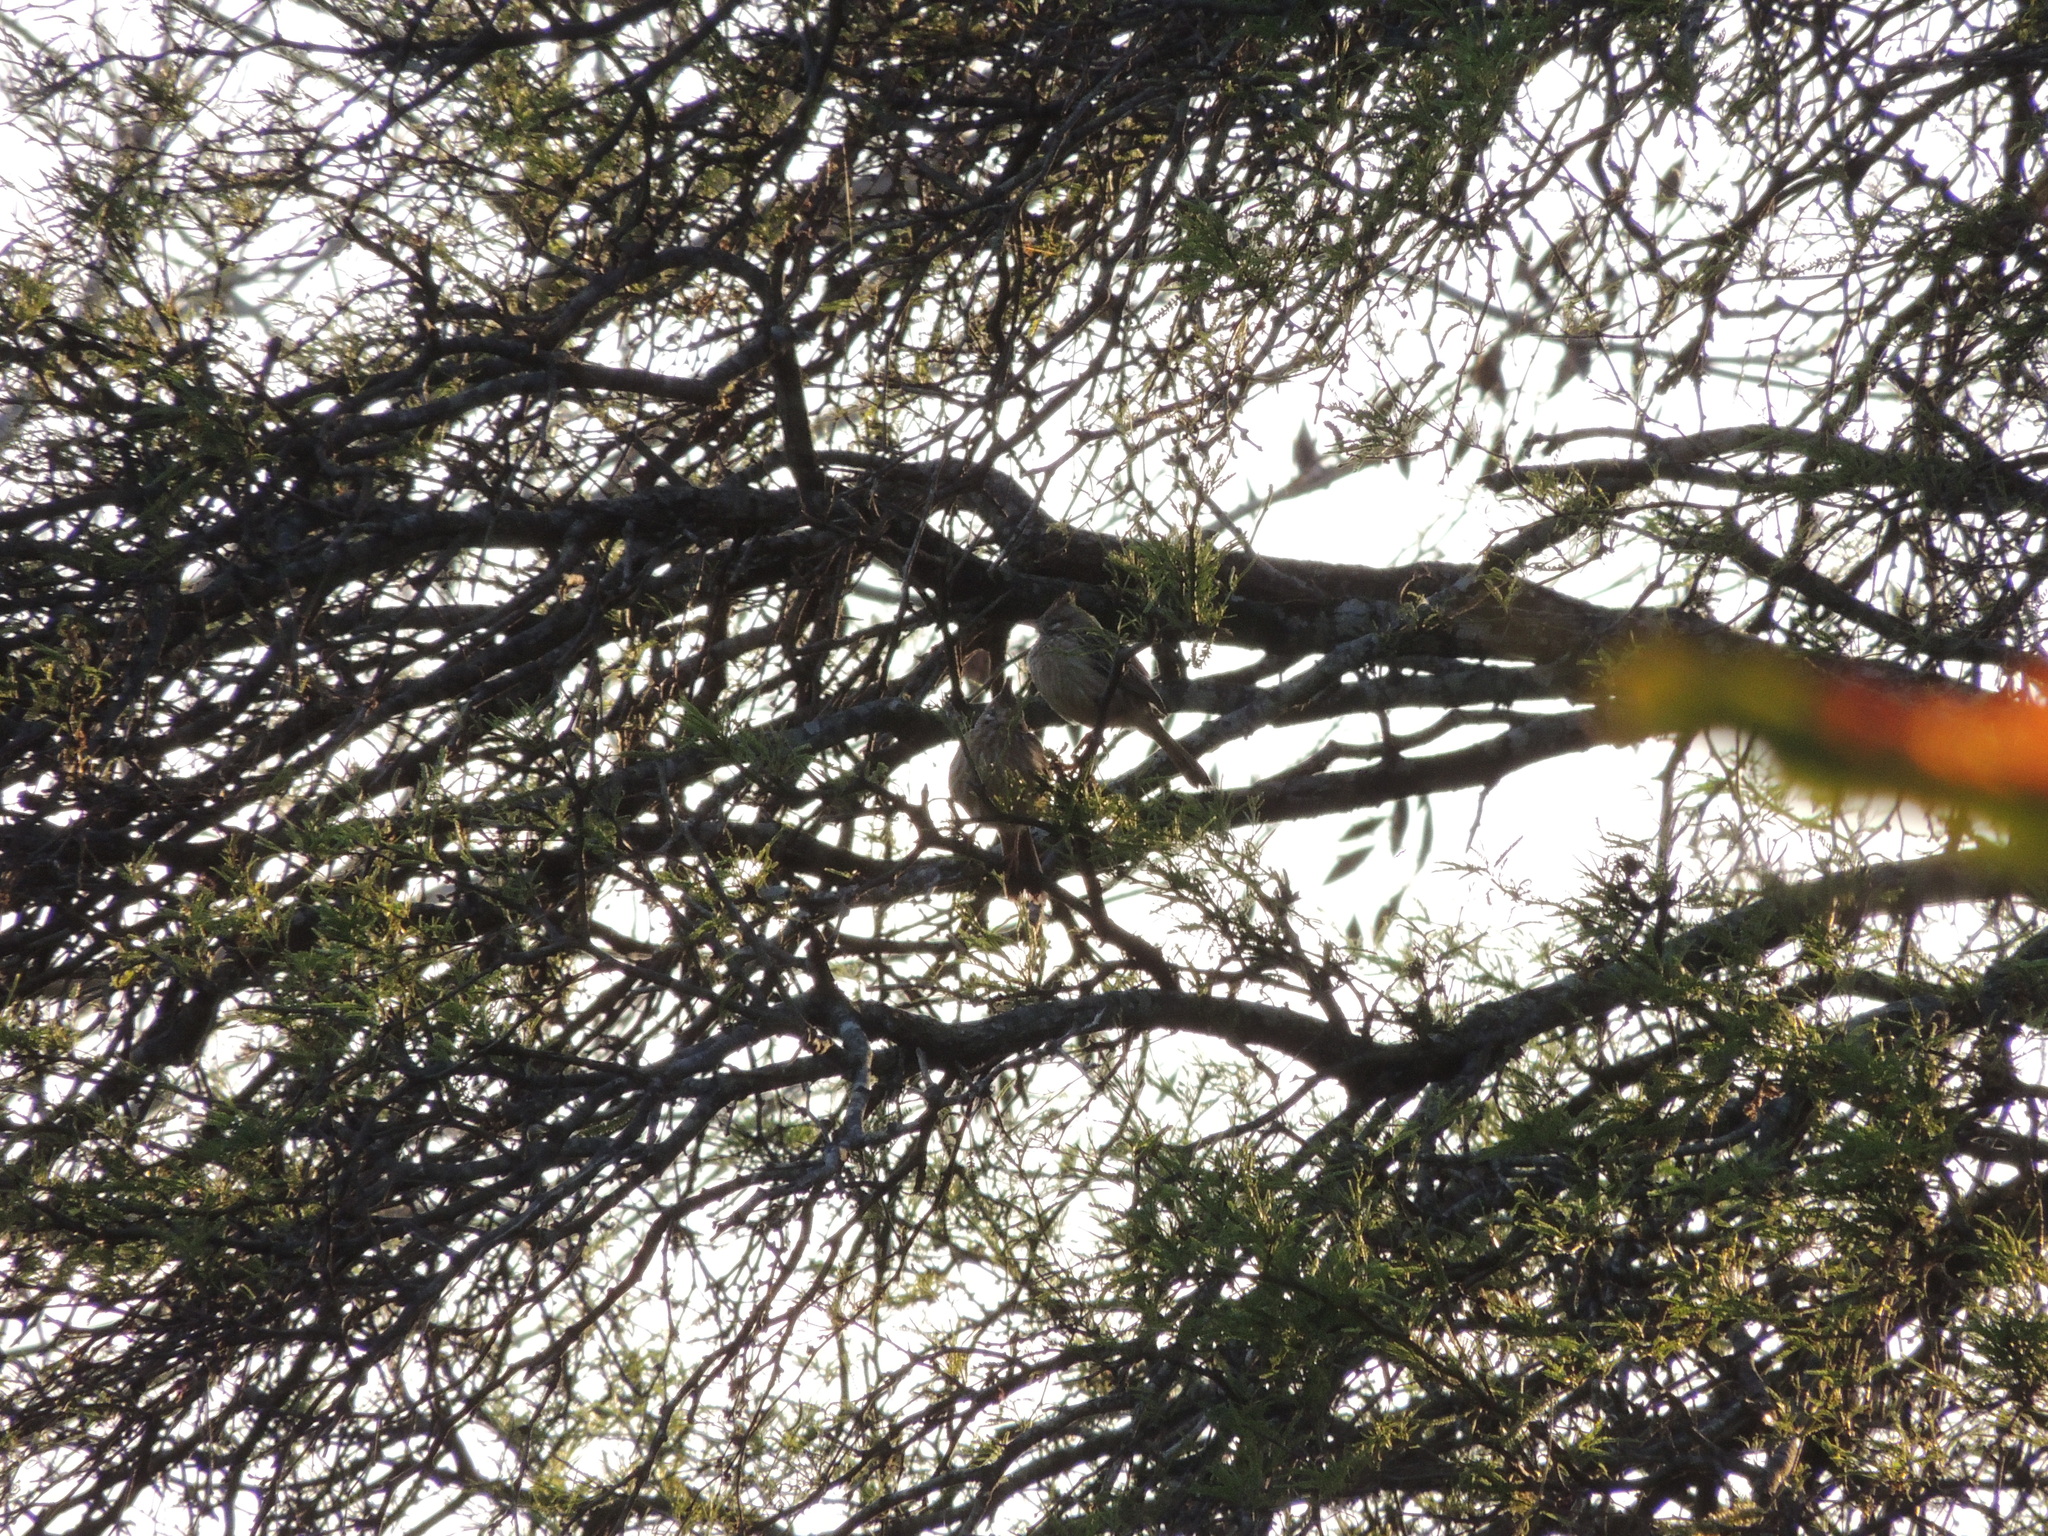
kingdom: Animalia
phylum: Chordata
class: Aves
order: Passeriformes
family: Furnariidae
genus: Coryphistera
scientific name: Coryphistera alaudina
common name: Lark-like brushrunner
